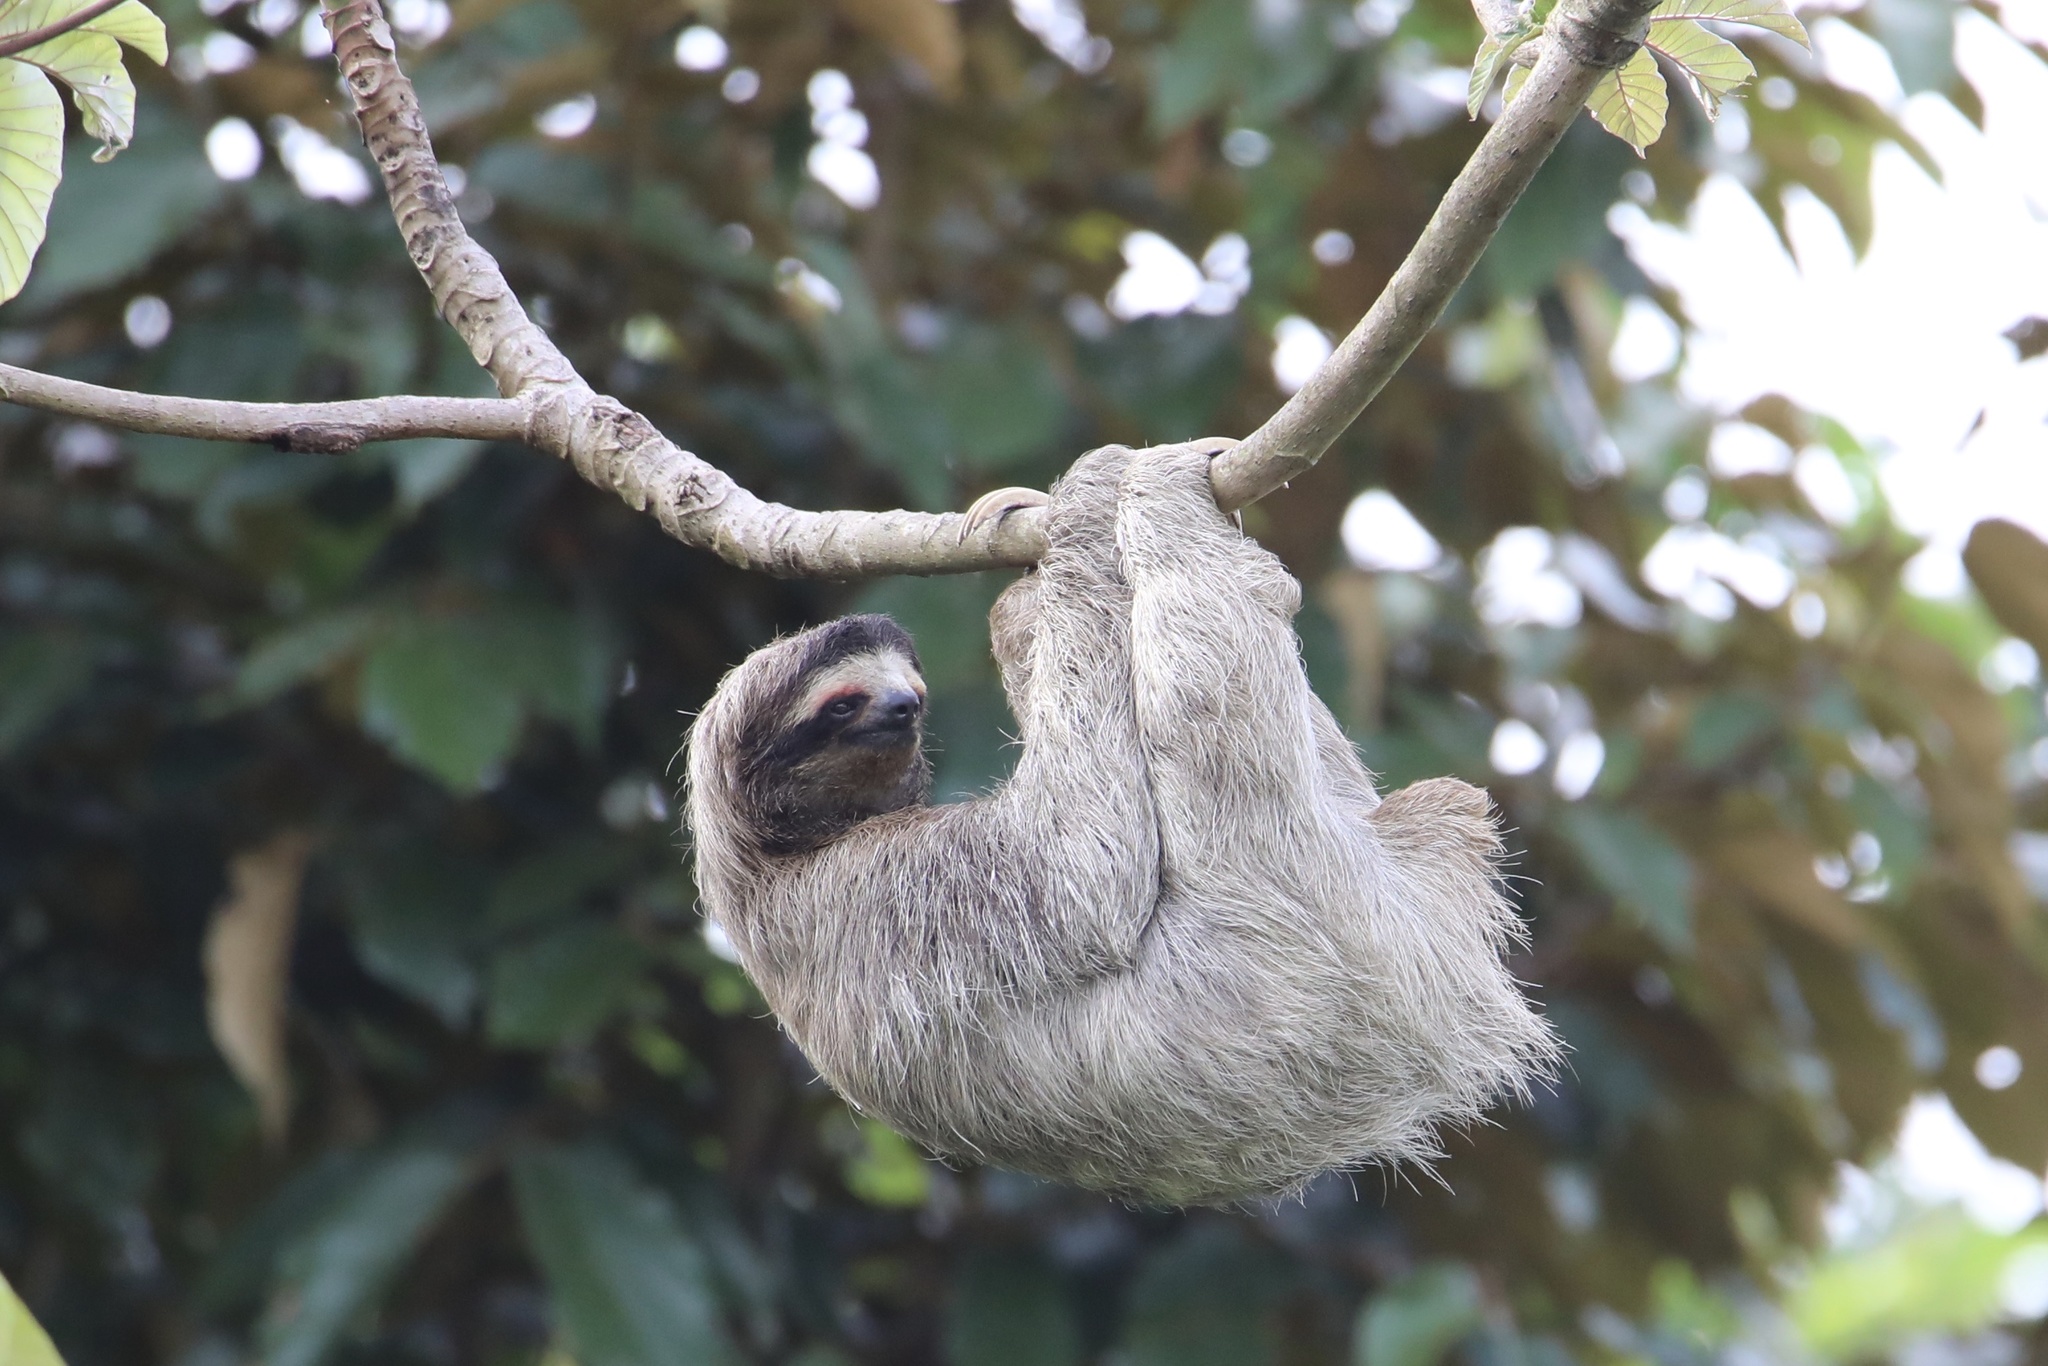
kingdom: Animalia
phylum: Chordata
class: Mammalia
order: Pilosa
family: Bradypodidae
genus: Bradypus
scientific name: Bradypus variegatus
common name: Brown-throated three-toed sloth
